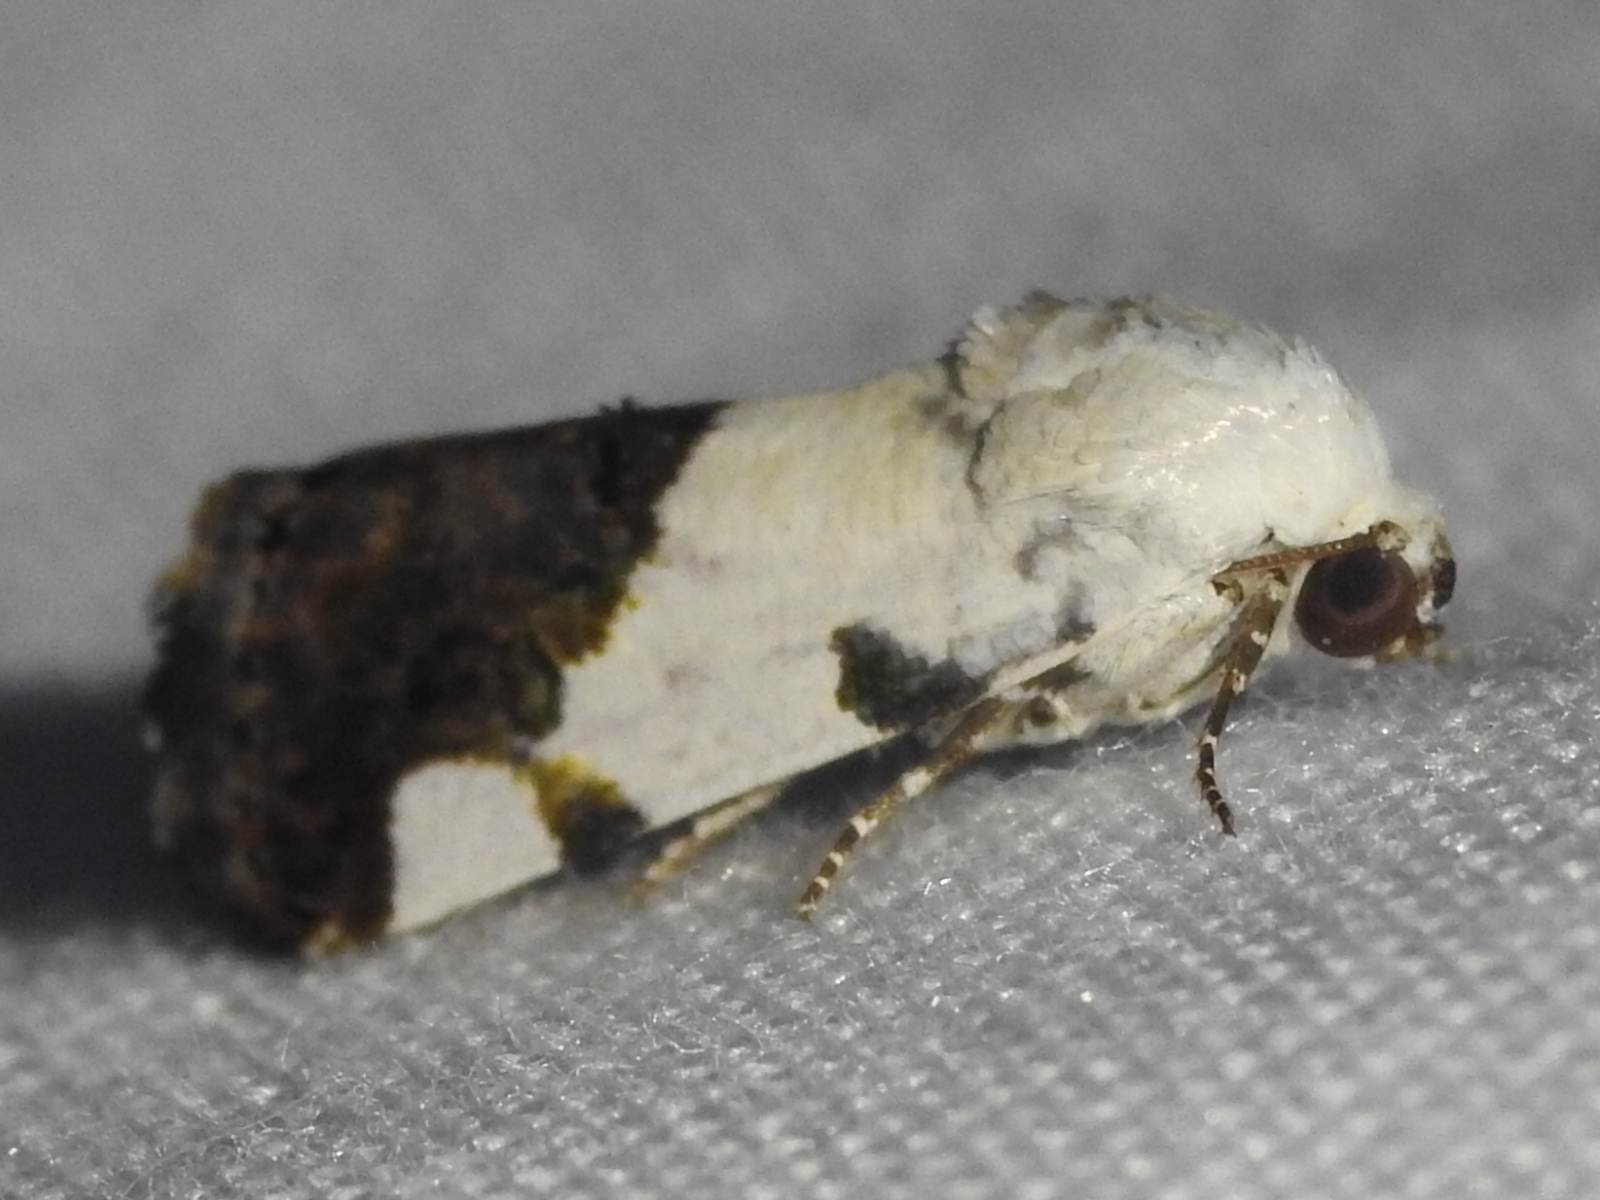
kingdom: Animalia
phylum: Arthropoda
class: Insecta
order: Lepidoptera
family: Noctuidae
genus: Acontia
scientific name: Acontia quadriplaga
